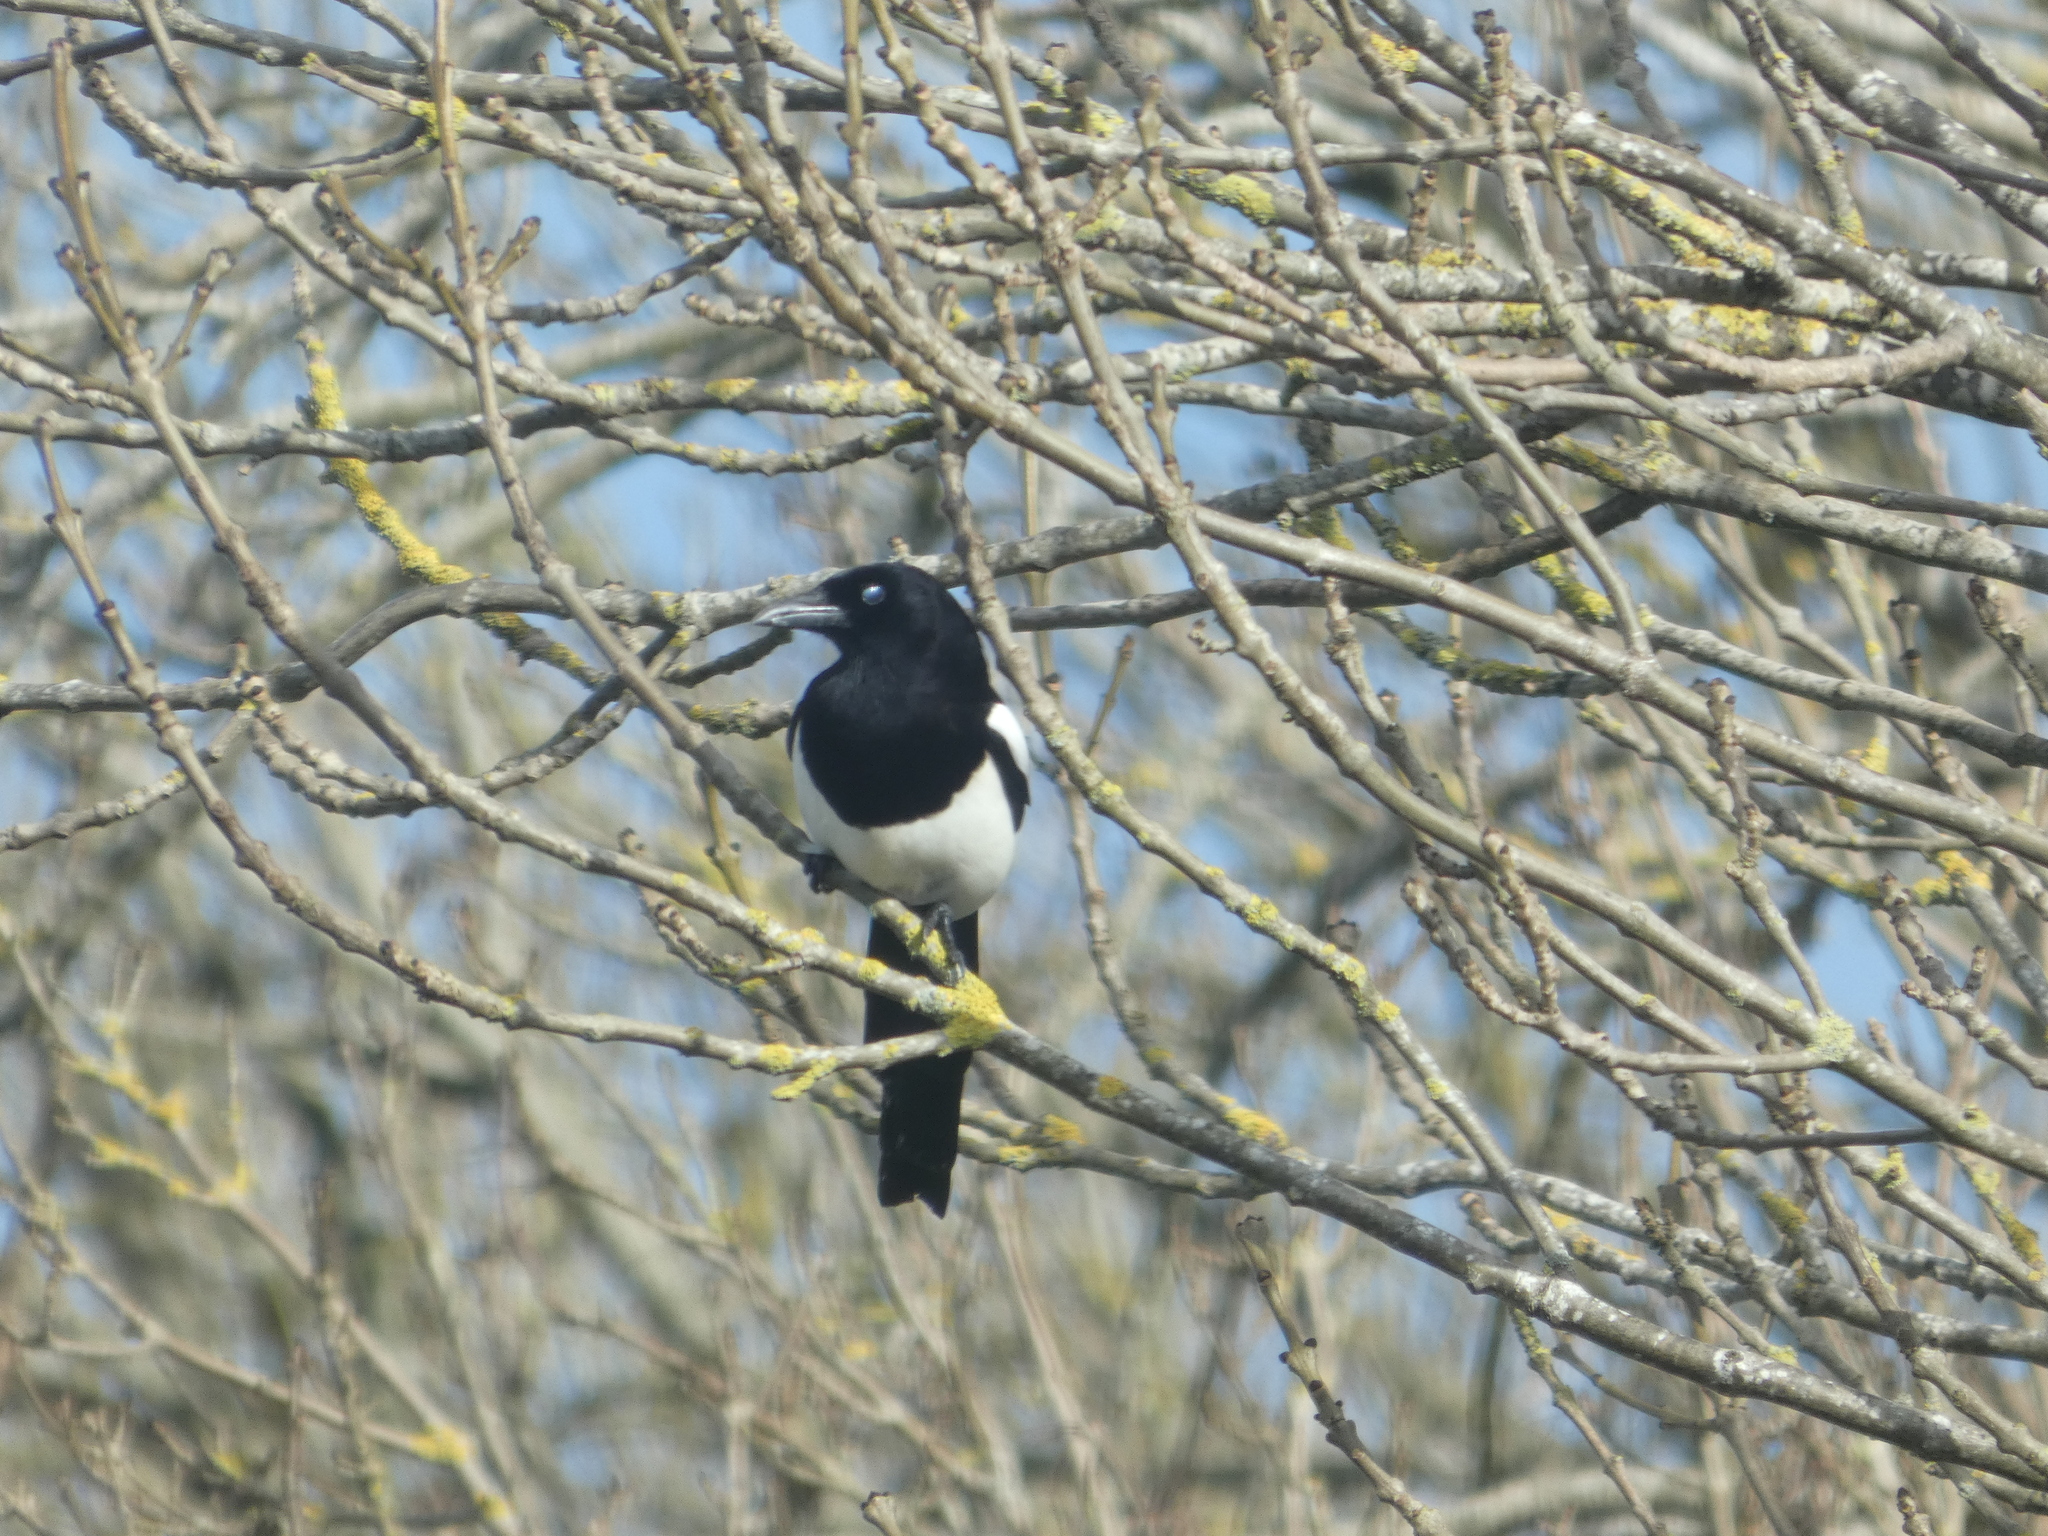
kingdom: Animalia
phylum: Chordata
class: Aves
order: Passeriformes
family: Corvidae
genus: Pica
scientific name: Pica pica
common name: Eurasian magpie
